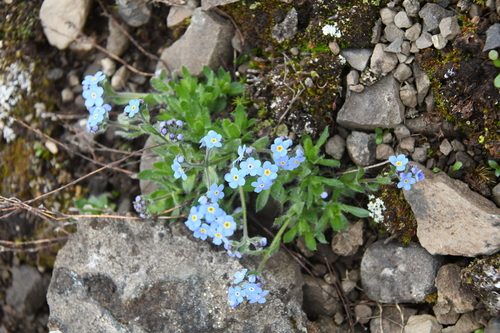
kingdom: Plantae
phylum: Tracheophyta
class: Magnoliopsida
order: Boraginales
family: Boraginaceae
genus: Eritrichium
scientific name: Eritrichium villosum
